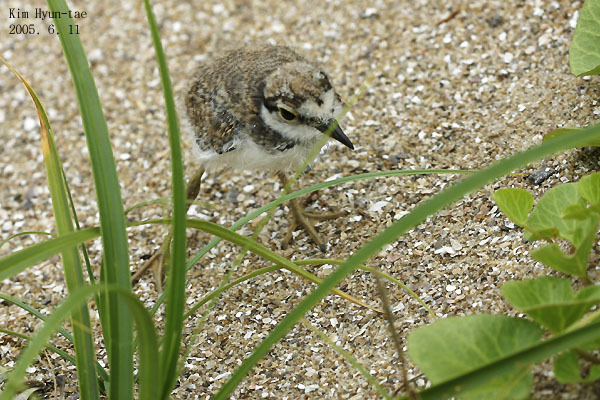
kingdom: Animalia
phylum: Chordata
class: Aves
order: Charadriiformes
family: Charadriidae
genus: Charadrius
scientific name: Charadrius dubius
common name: Little ringed plover
